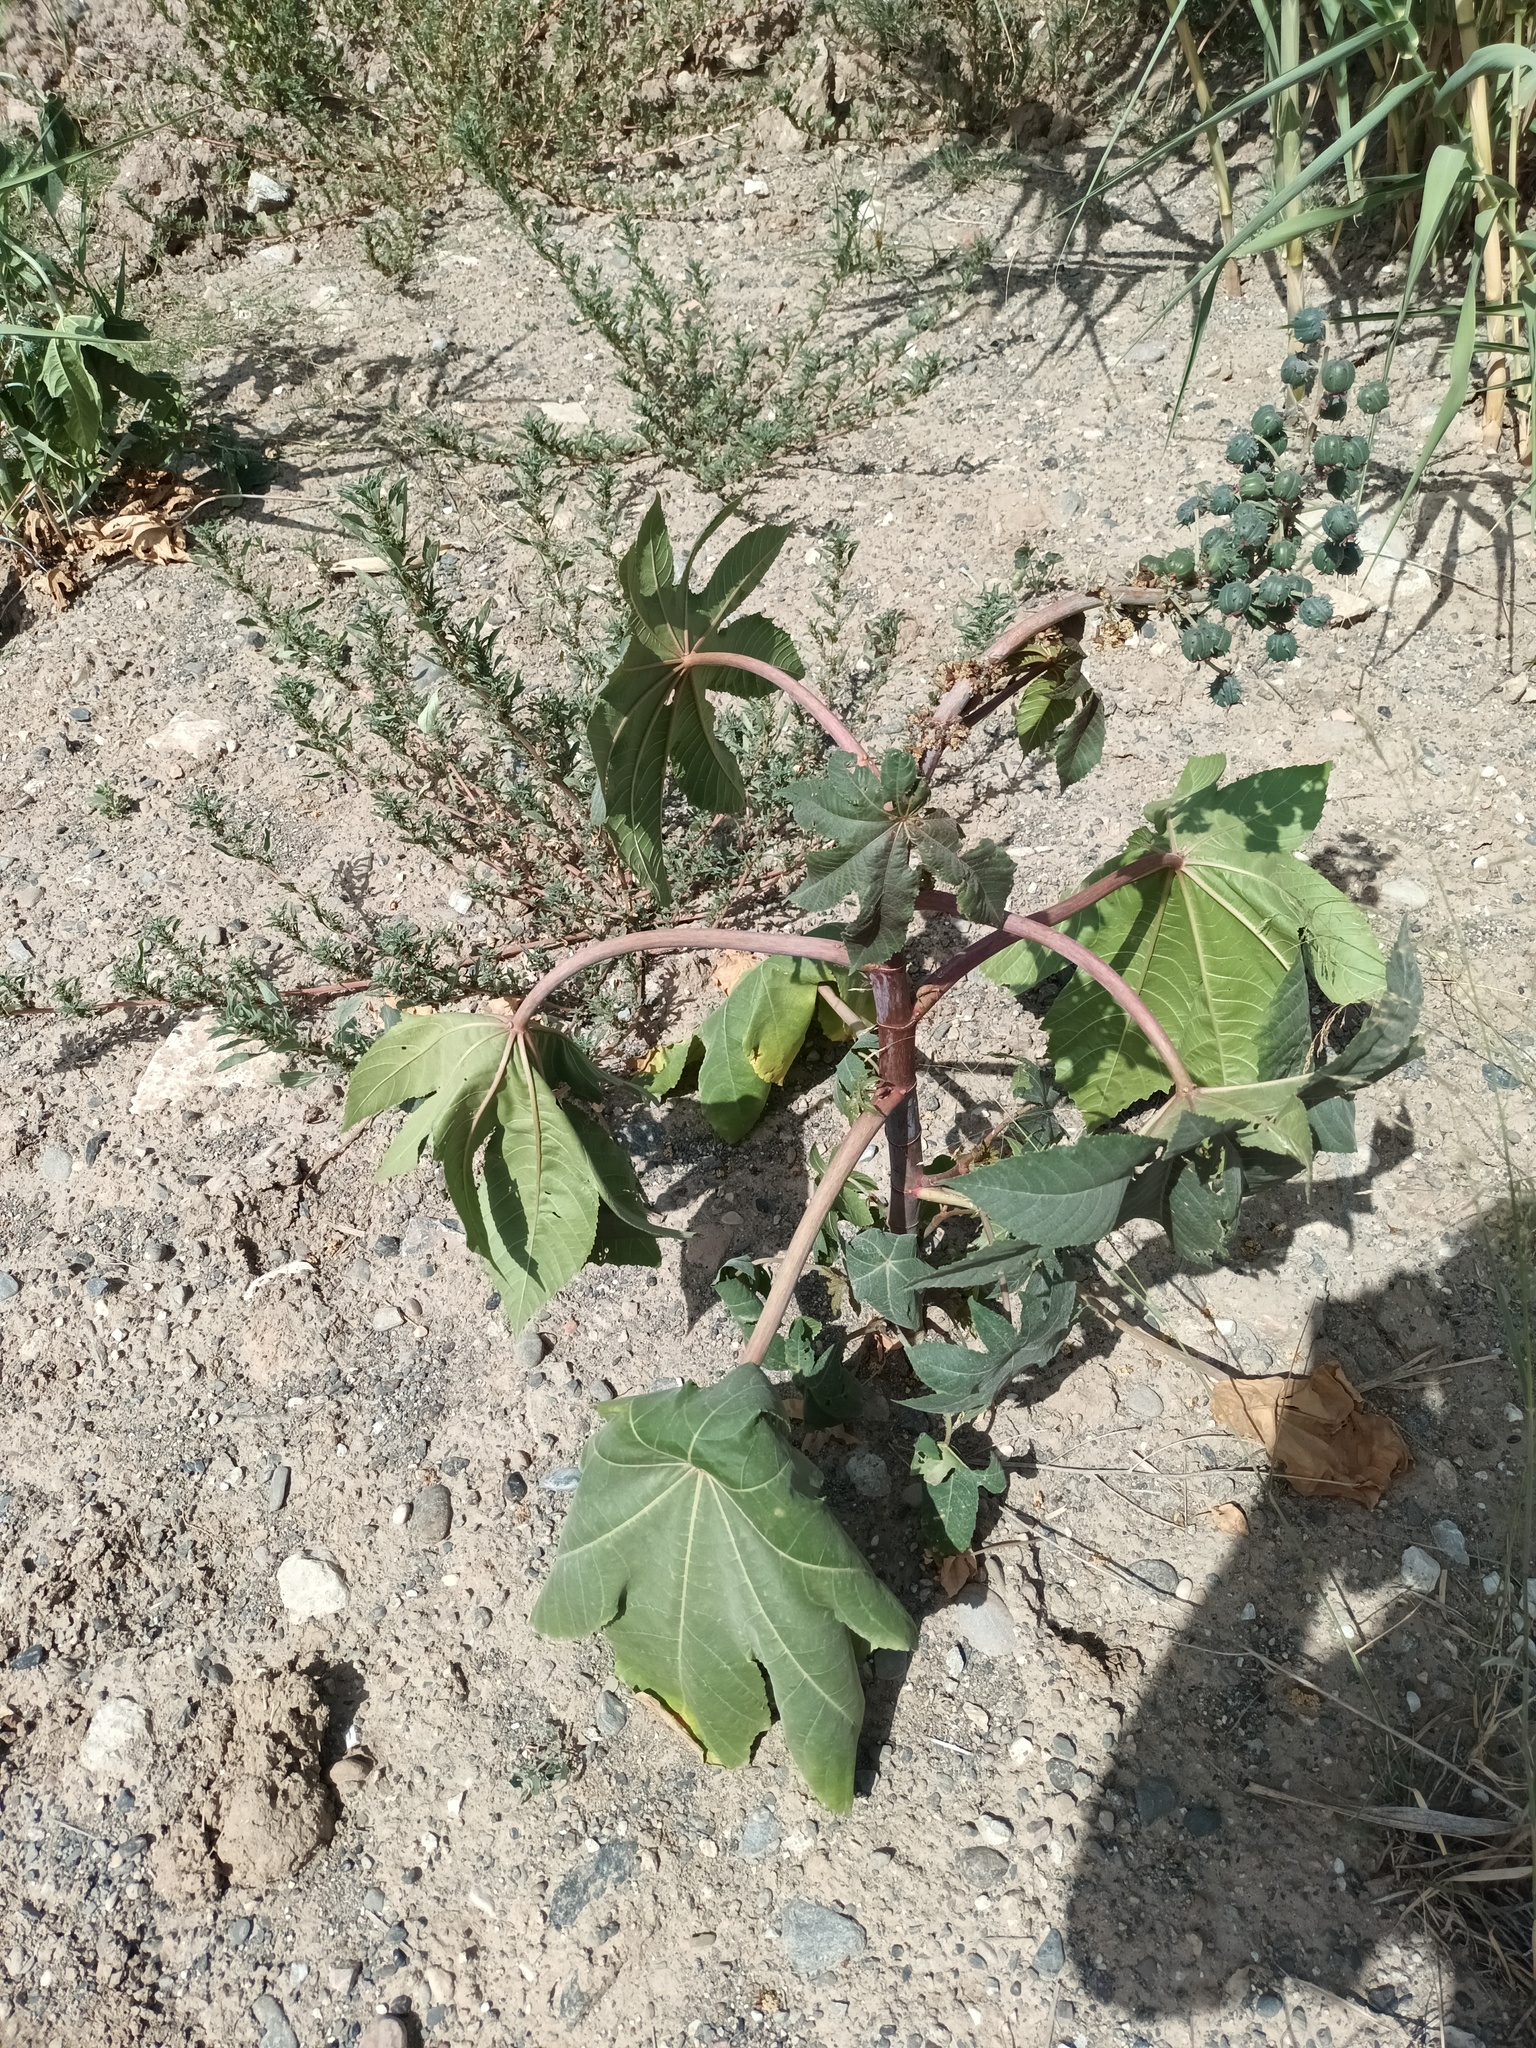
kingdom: Plantae
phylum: Tracheophyta
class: Magnoliopsida
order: Malpighiales
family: Euphorbiaceae
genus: Ricinus
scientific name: Ricinus communis
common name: Castor-oil-plant
